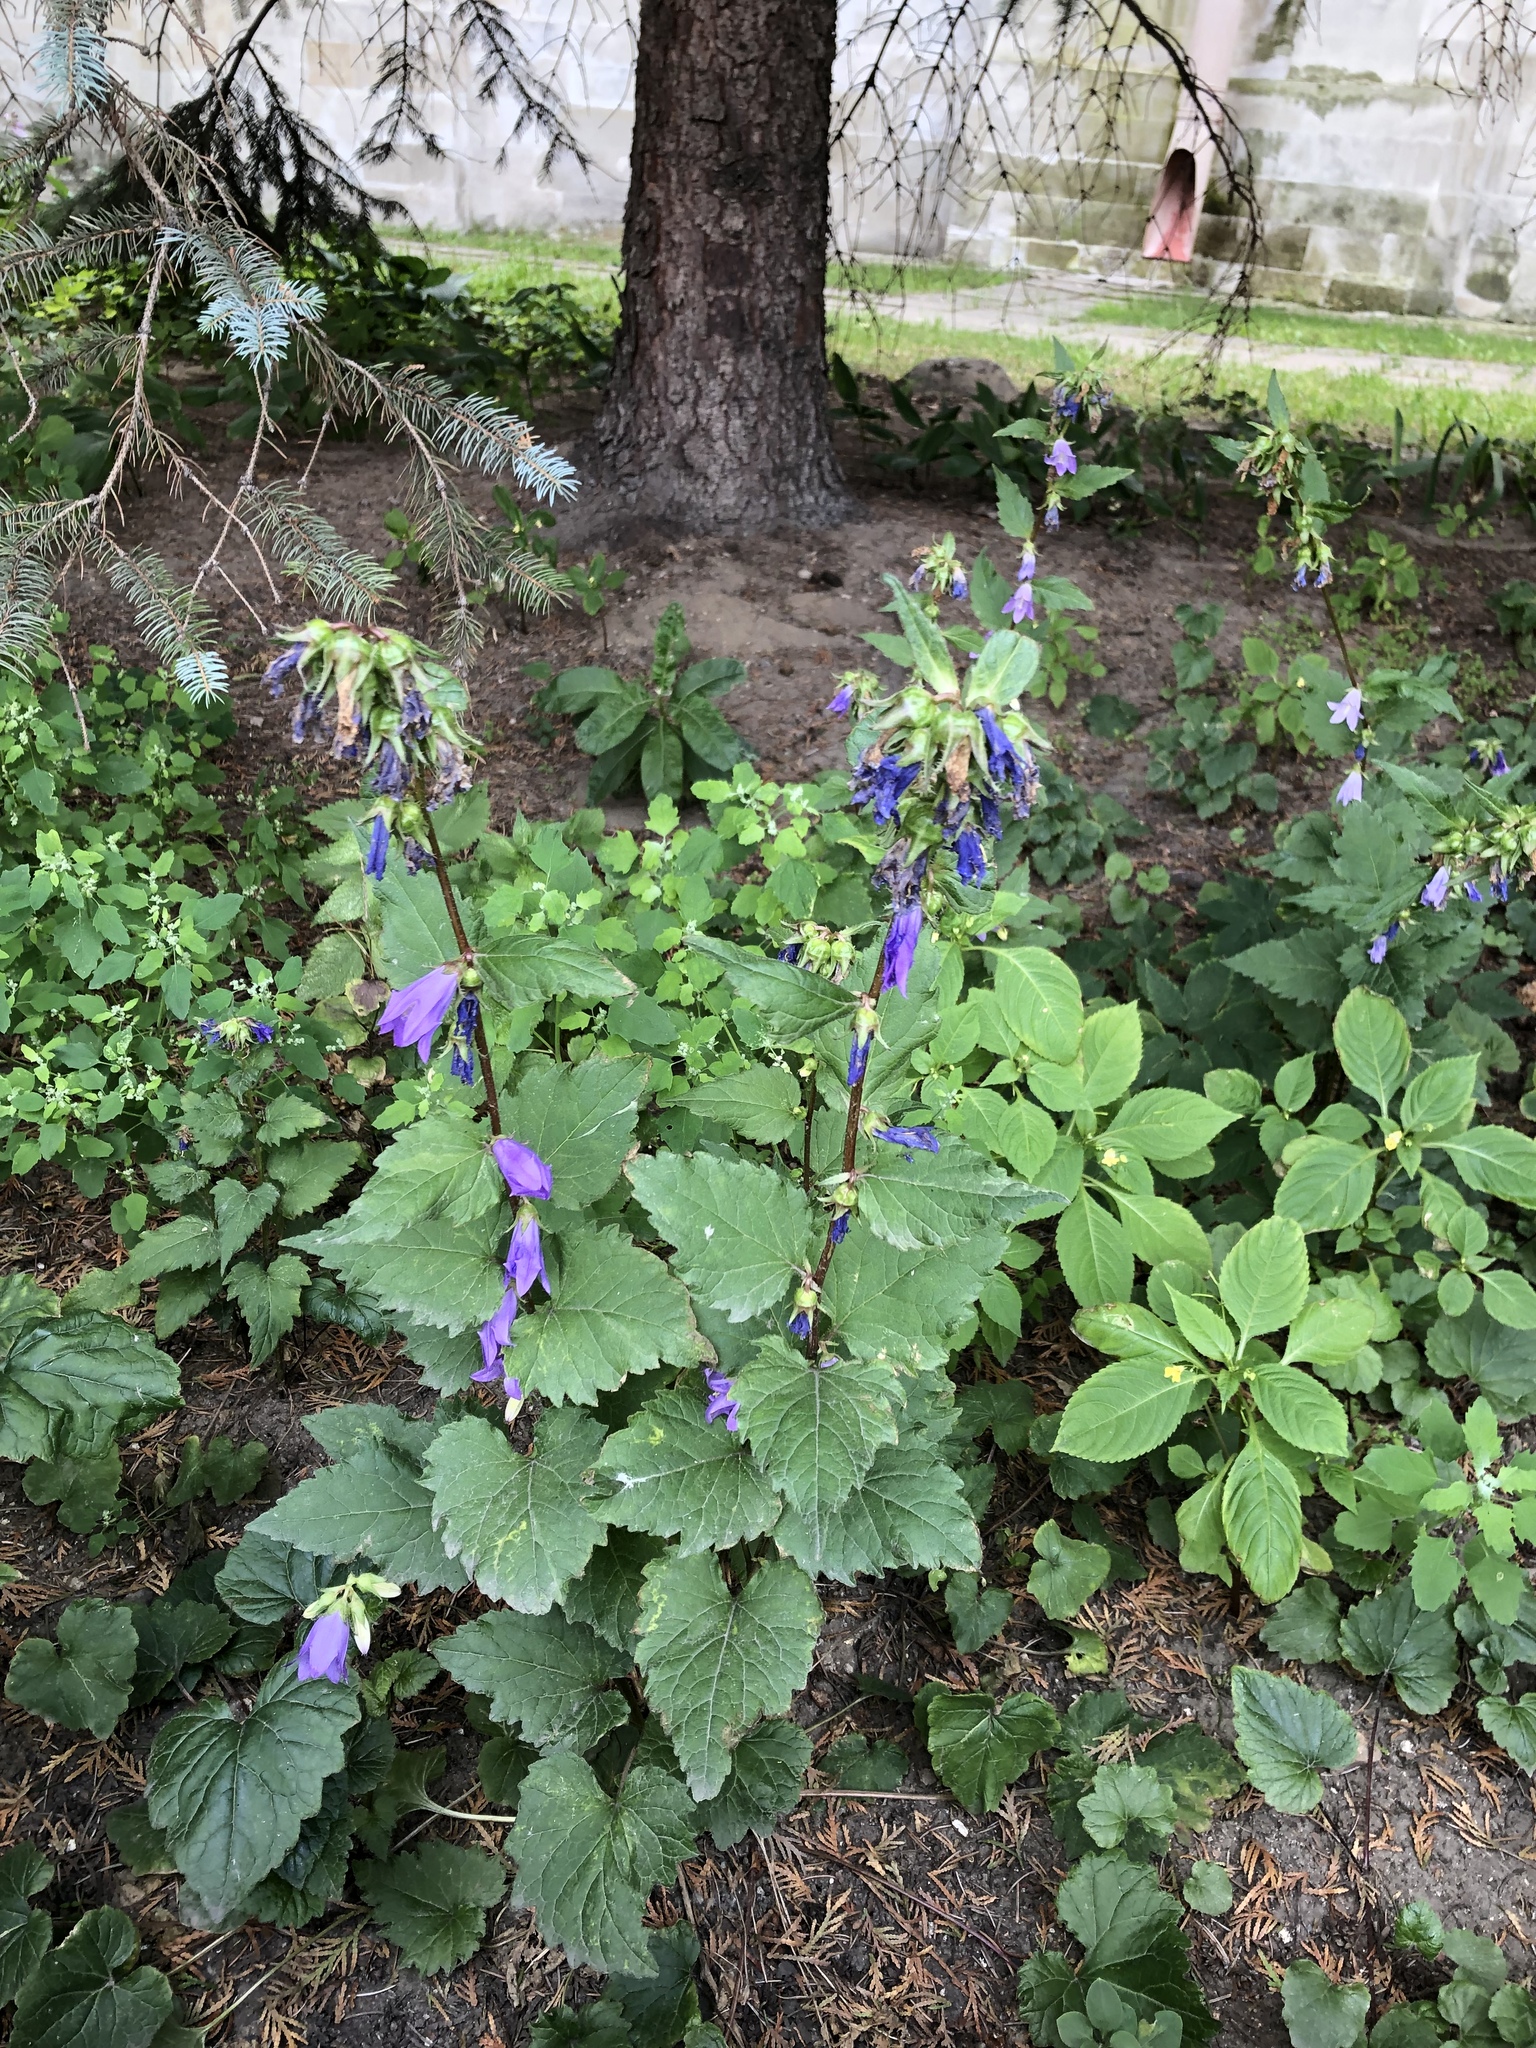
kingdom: Plantae
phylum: Tracheophyta
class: Magnoliopsida
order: Asterales
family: Campanulaceae
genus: Campanula
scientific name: Campanula trachelium
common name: Nettle-leaved bellflower
